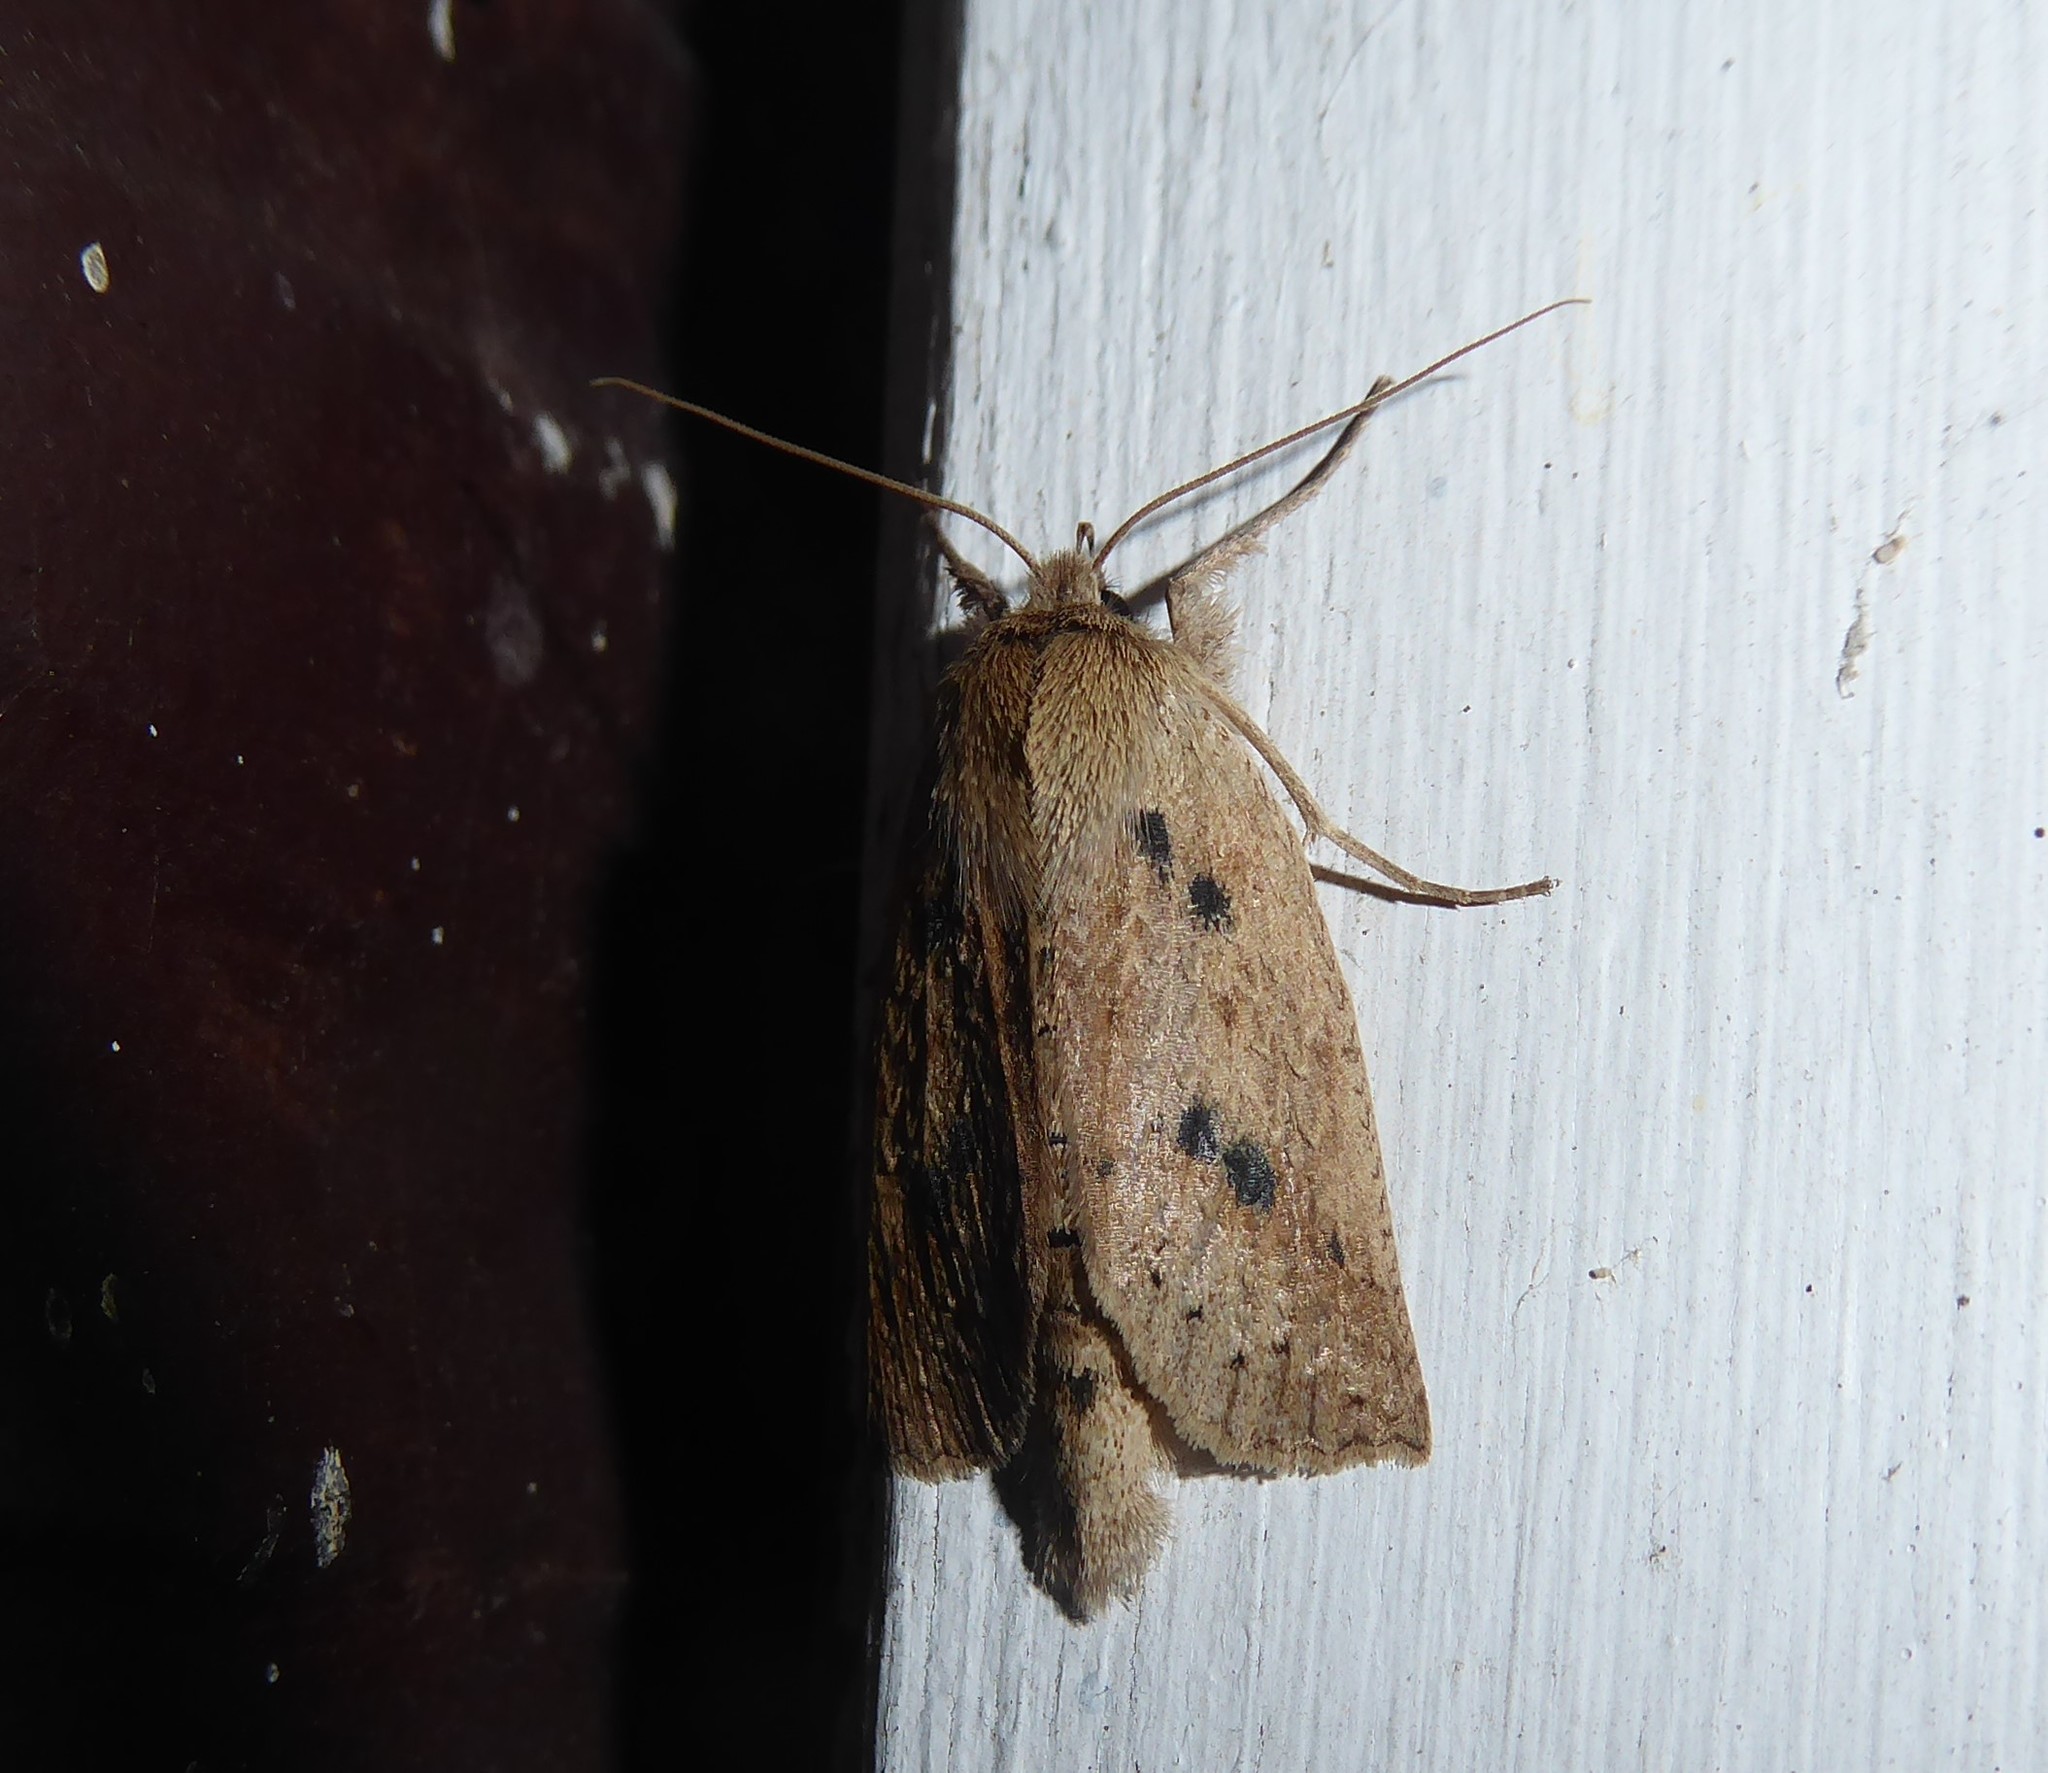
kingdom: Animalia
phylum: Arthropoda
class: Insecta
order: Lepidoptera
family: Geometridae
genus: Declana
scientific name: Declana leptomera
